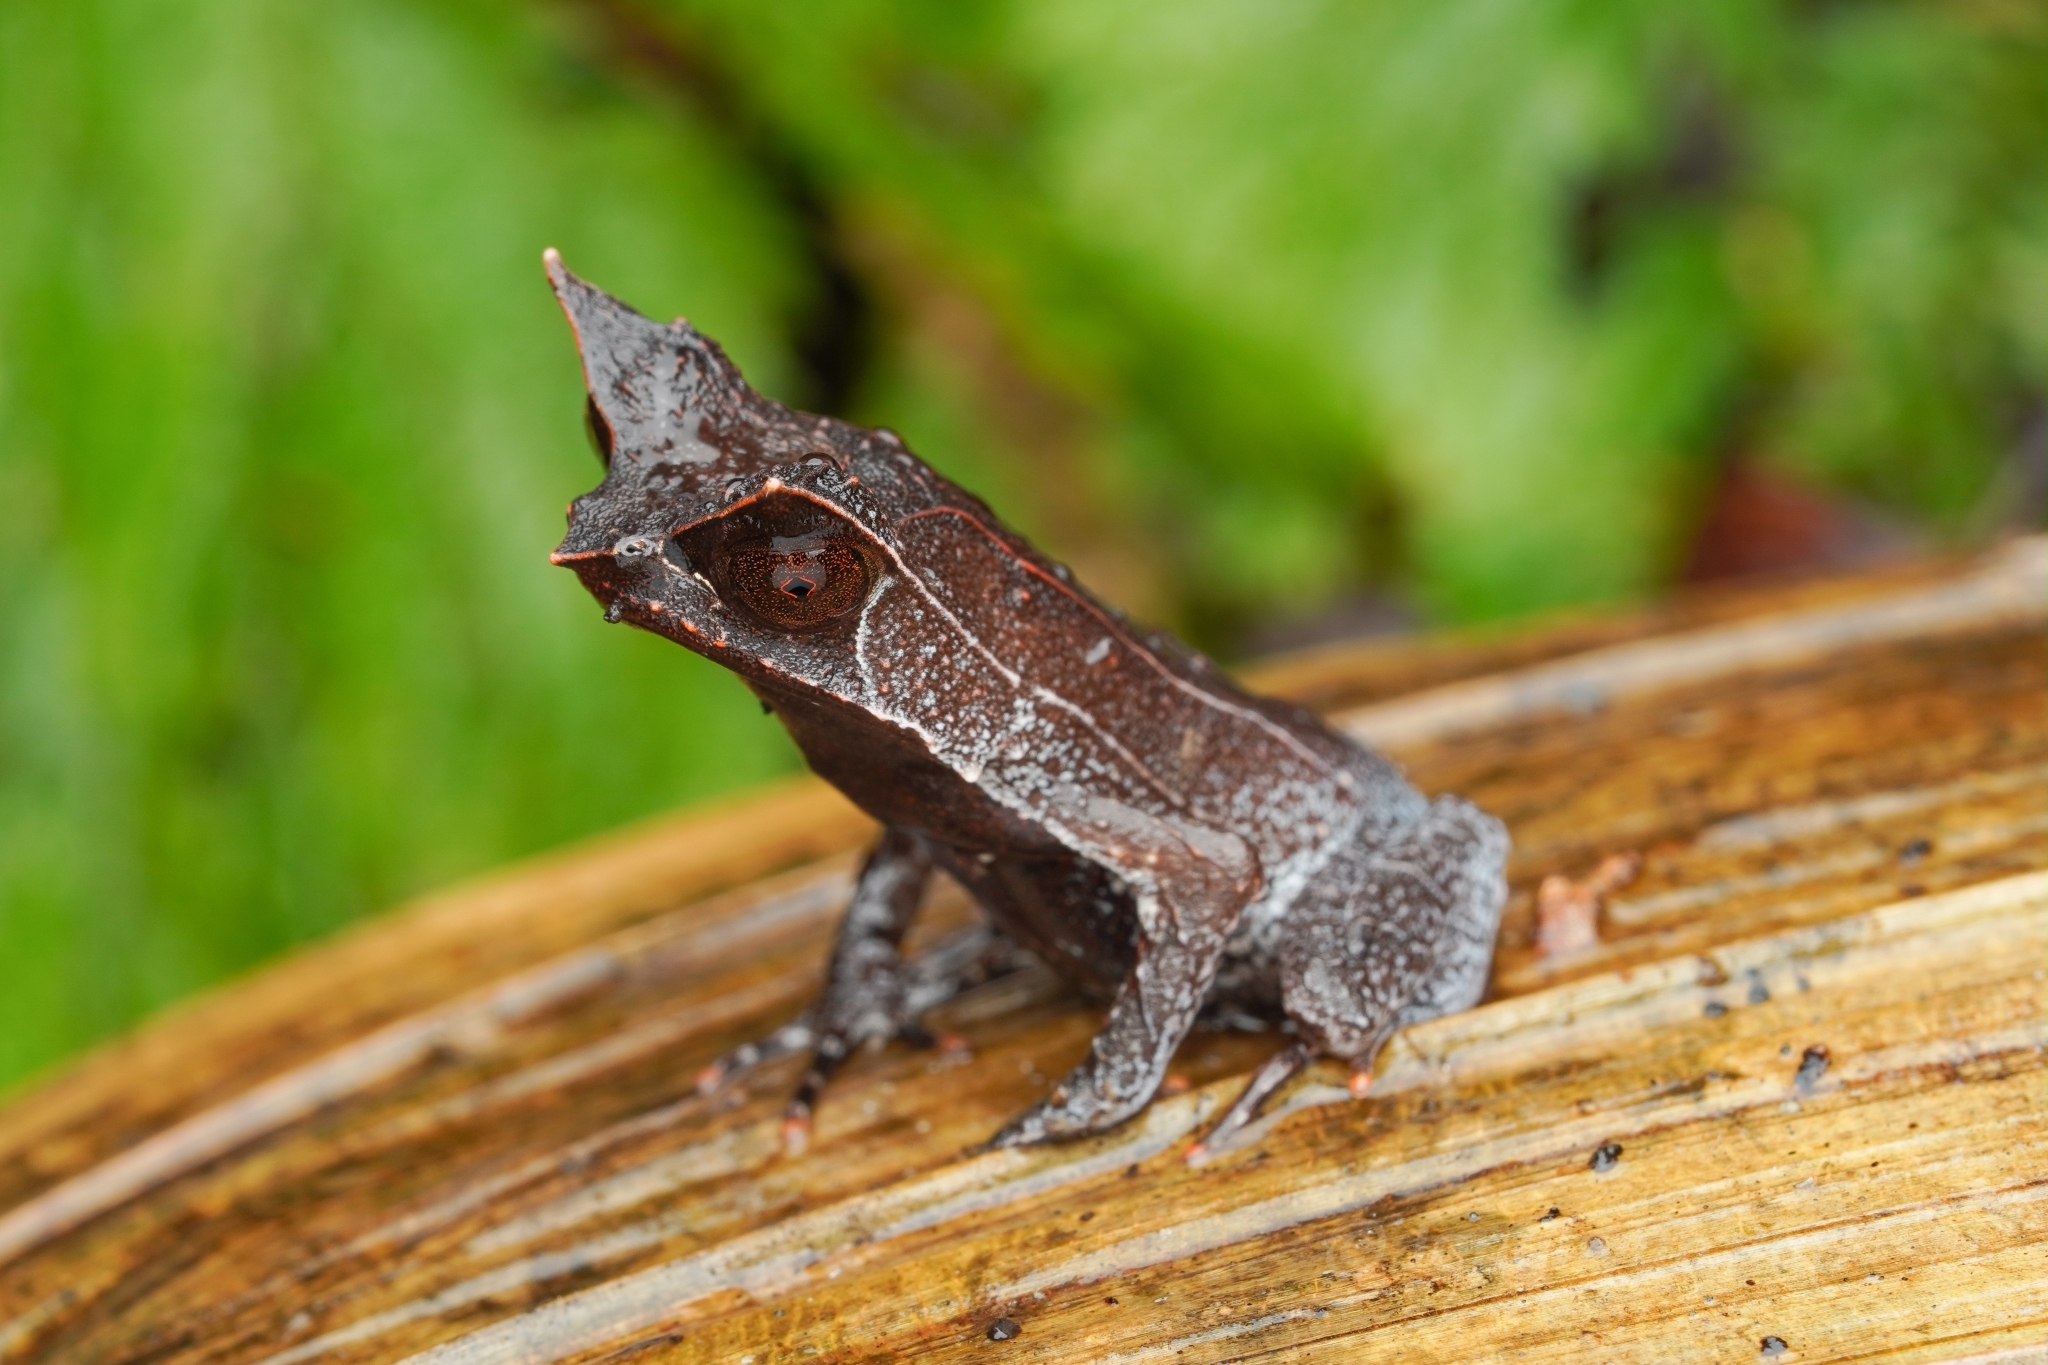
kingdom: Animalia
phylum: Chordata
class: Amphibia
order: Anura
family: Megophryidae
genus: Megophrys
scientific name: Megophrys nasuta
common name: Malayan horned frog
